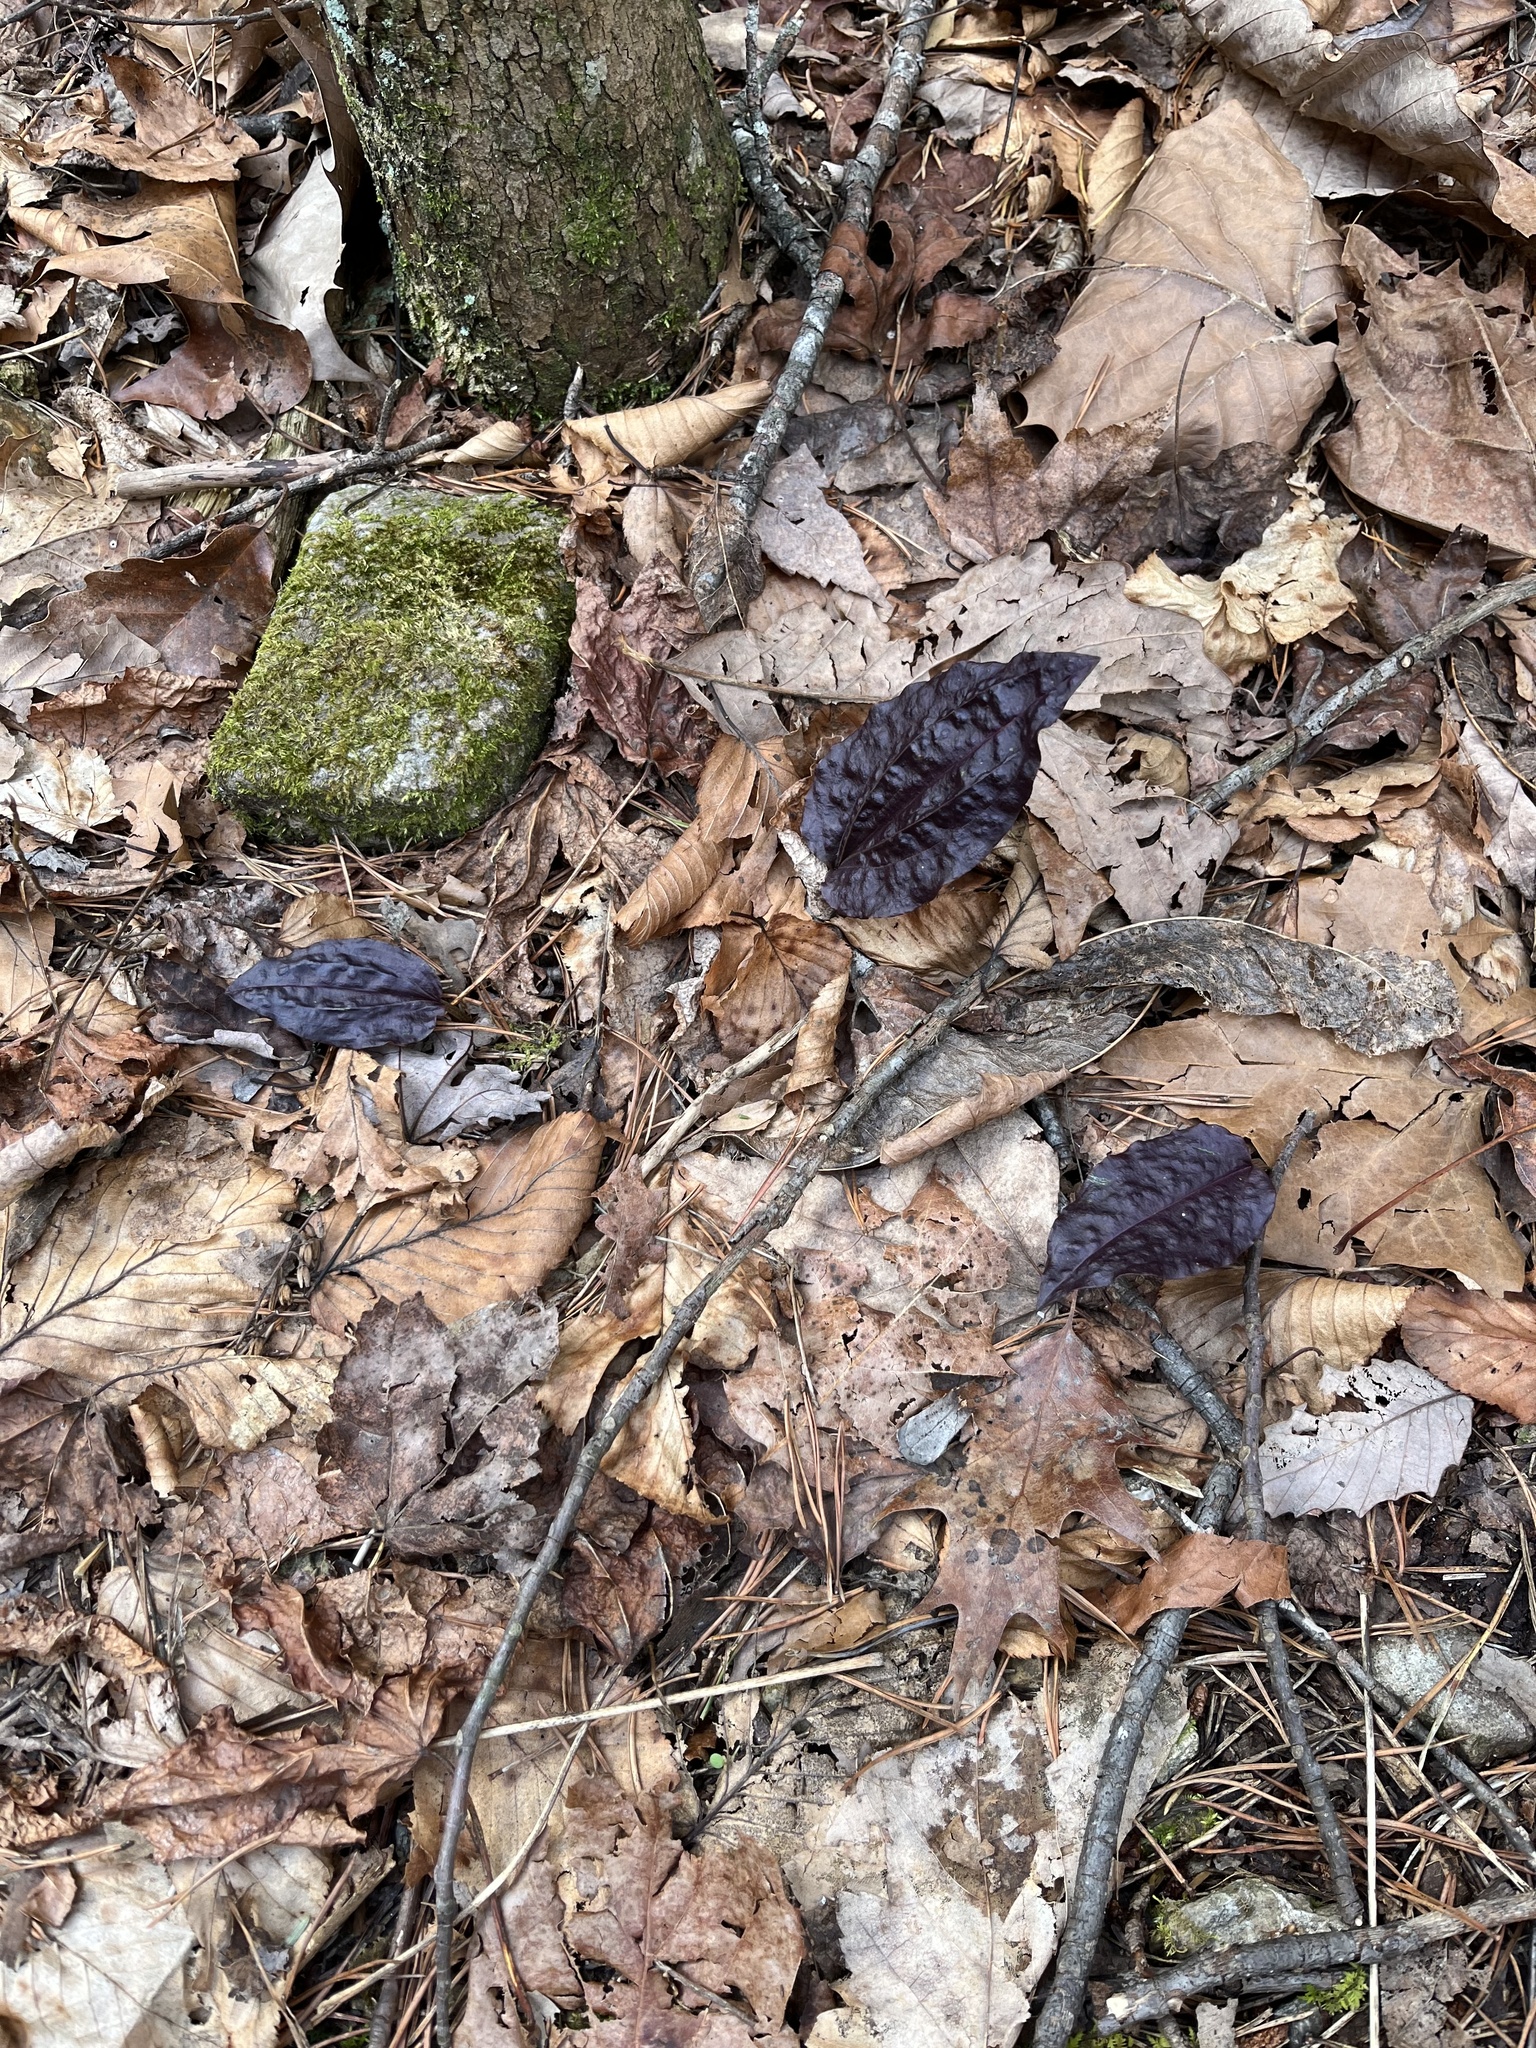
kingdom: Plantae
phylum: Tracheophyta
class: Liliopsida
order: Asparagales
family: Orchidaceae
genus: Tipularia
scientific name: Tipularia discolor
